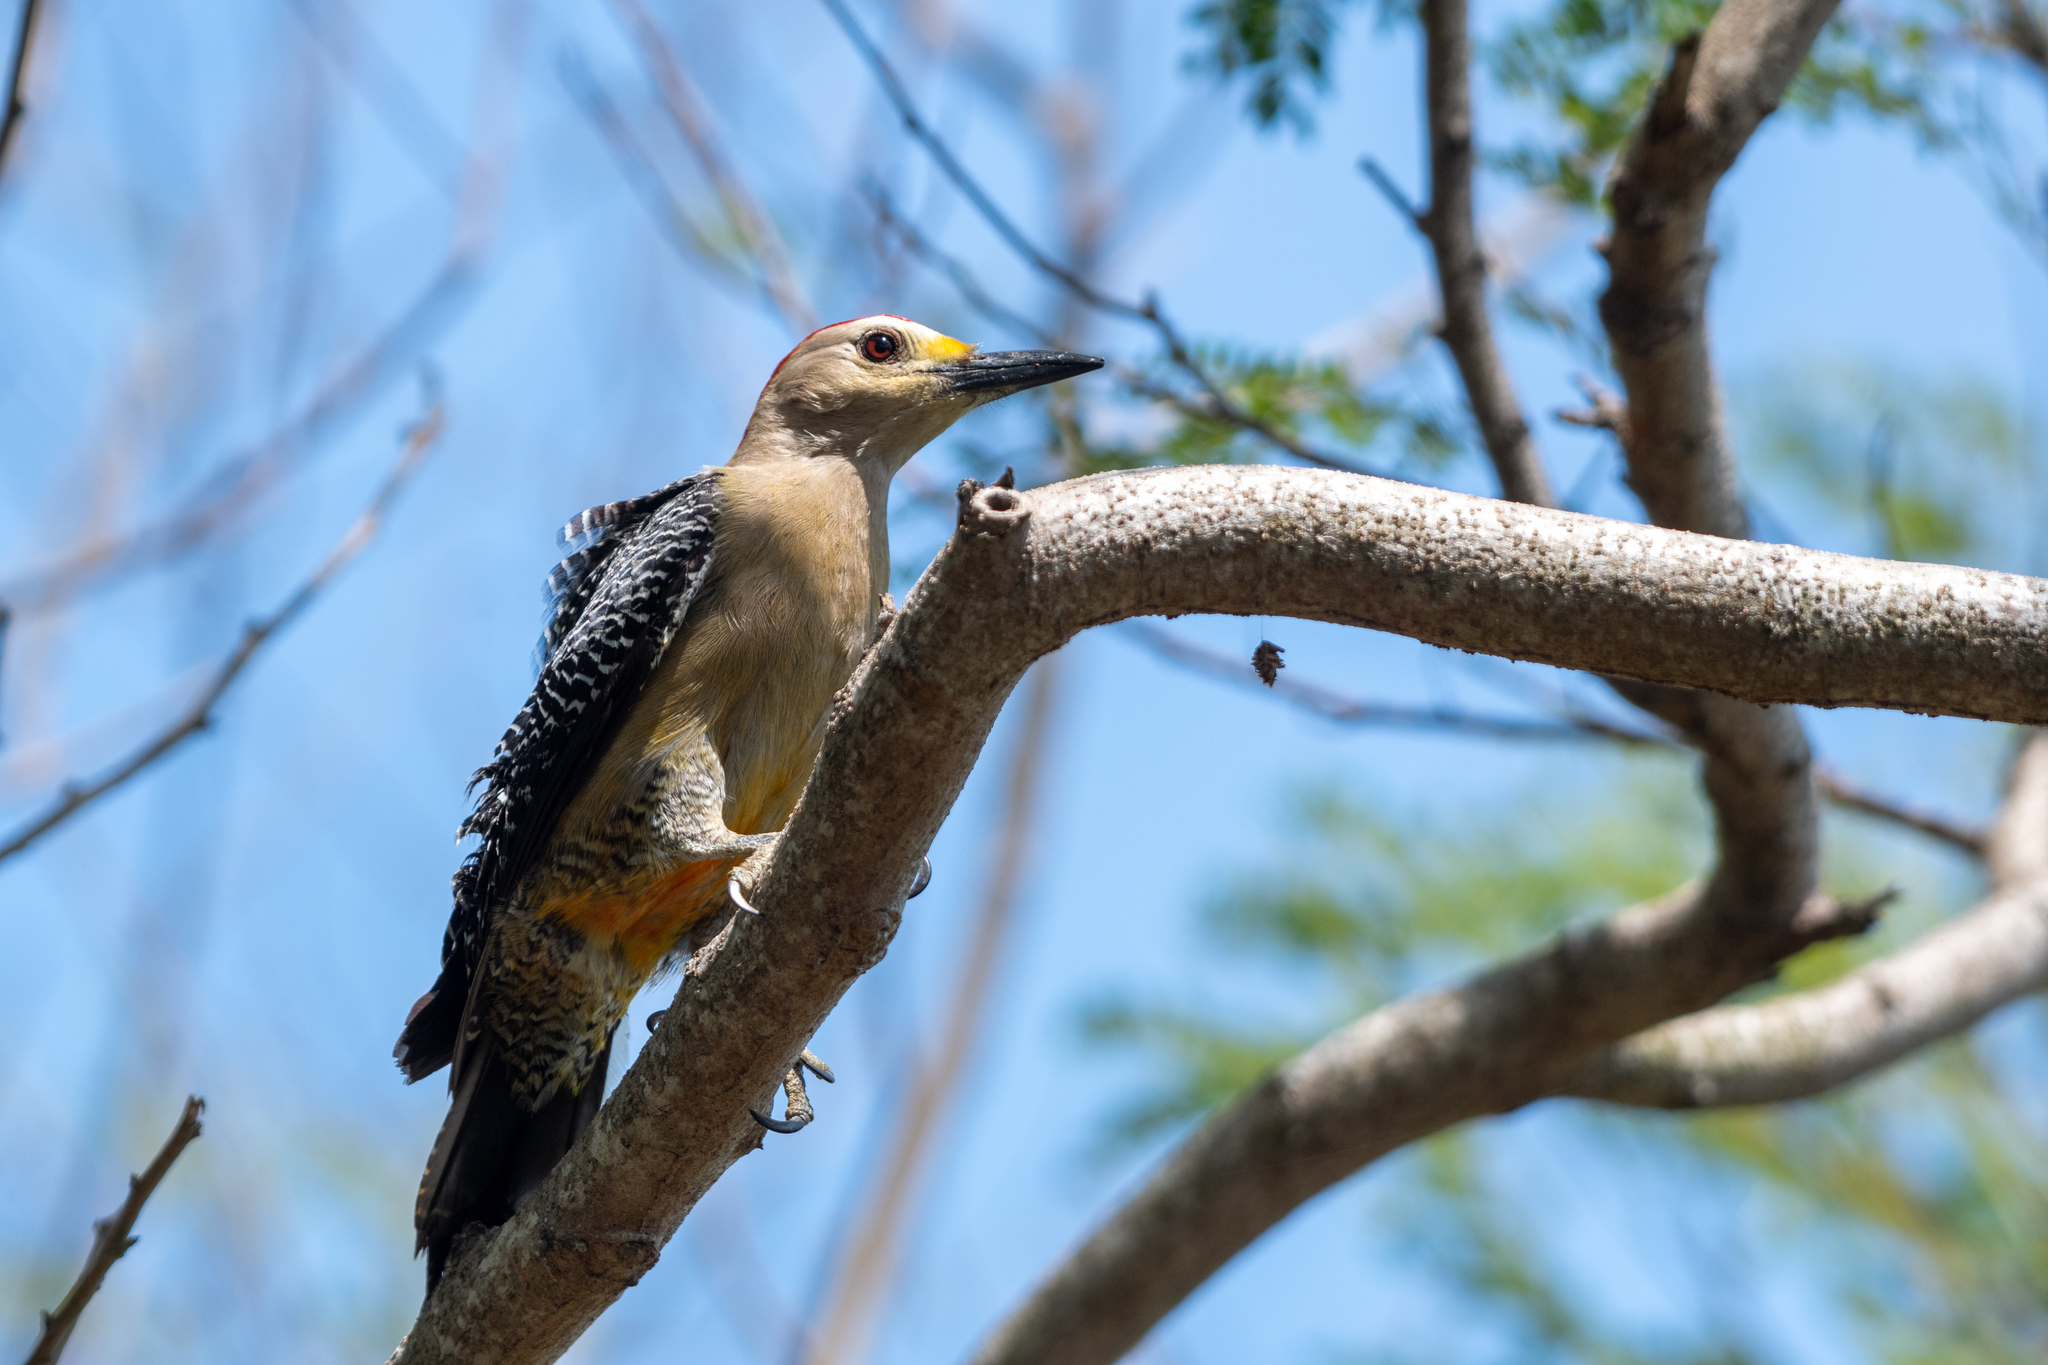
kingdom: Animalia
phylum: Chordata
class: Aves
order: Piciformes
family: Picidae
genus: Melanerpes
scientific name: Melanerpes santacruzi
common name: Velasquez's woodpecker
